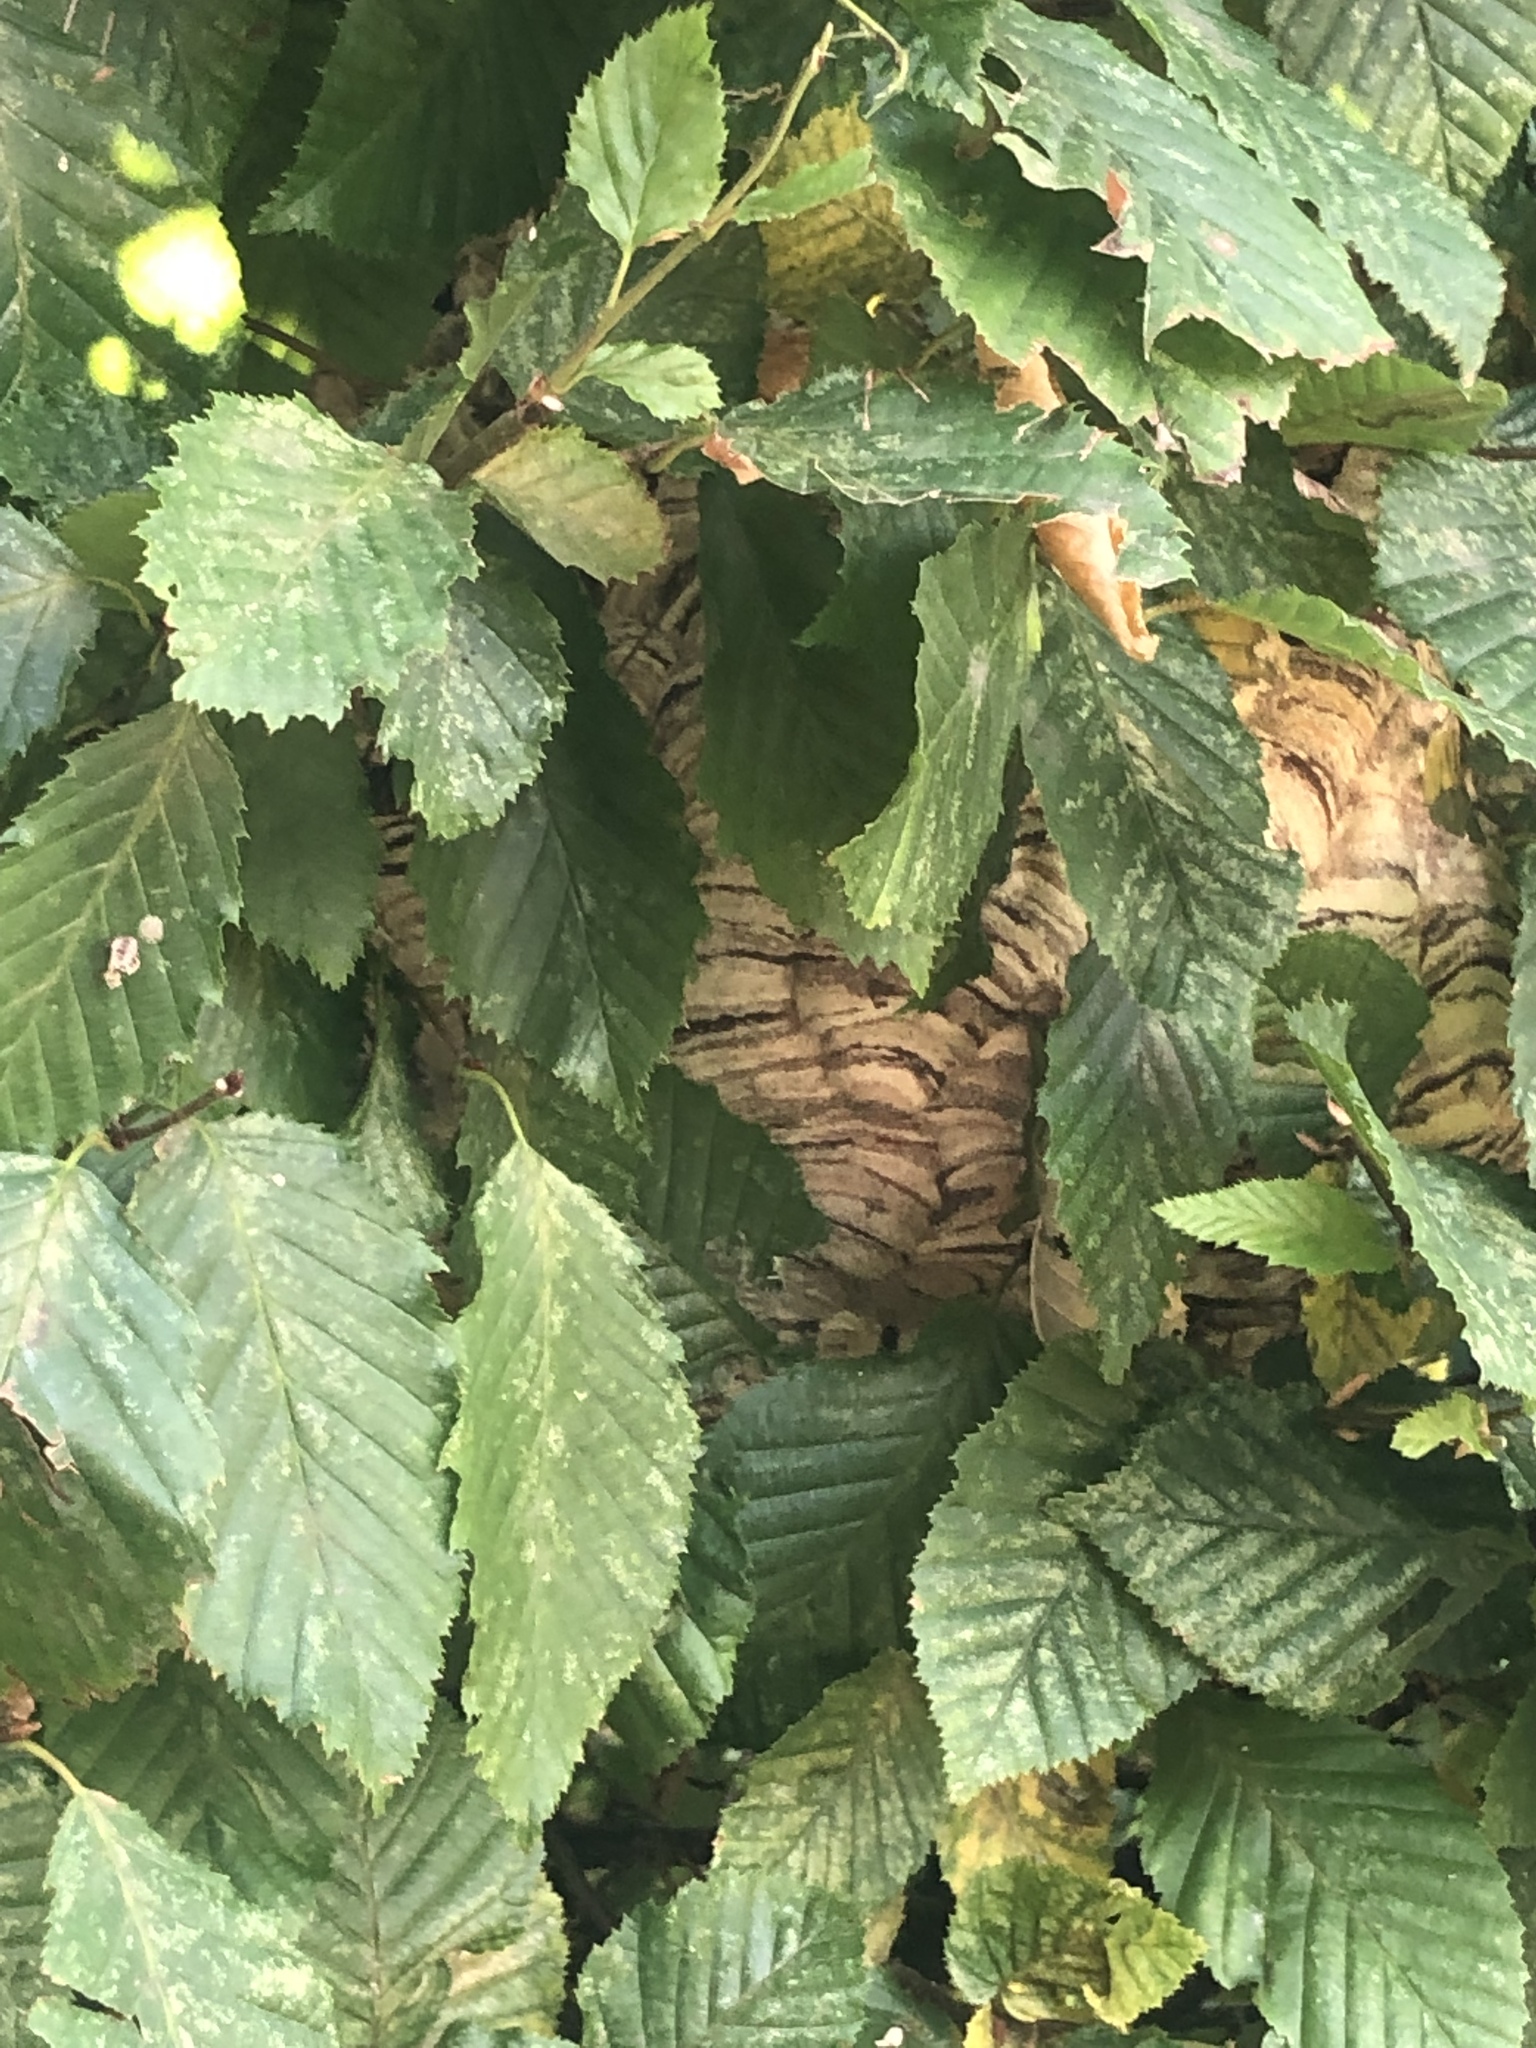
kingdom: Animalia
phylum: Arthropoda
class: Insecta
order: Hymenoptera
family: Vespidae
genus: Vespa
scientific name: Vespa velutina
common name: Asian hornet
